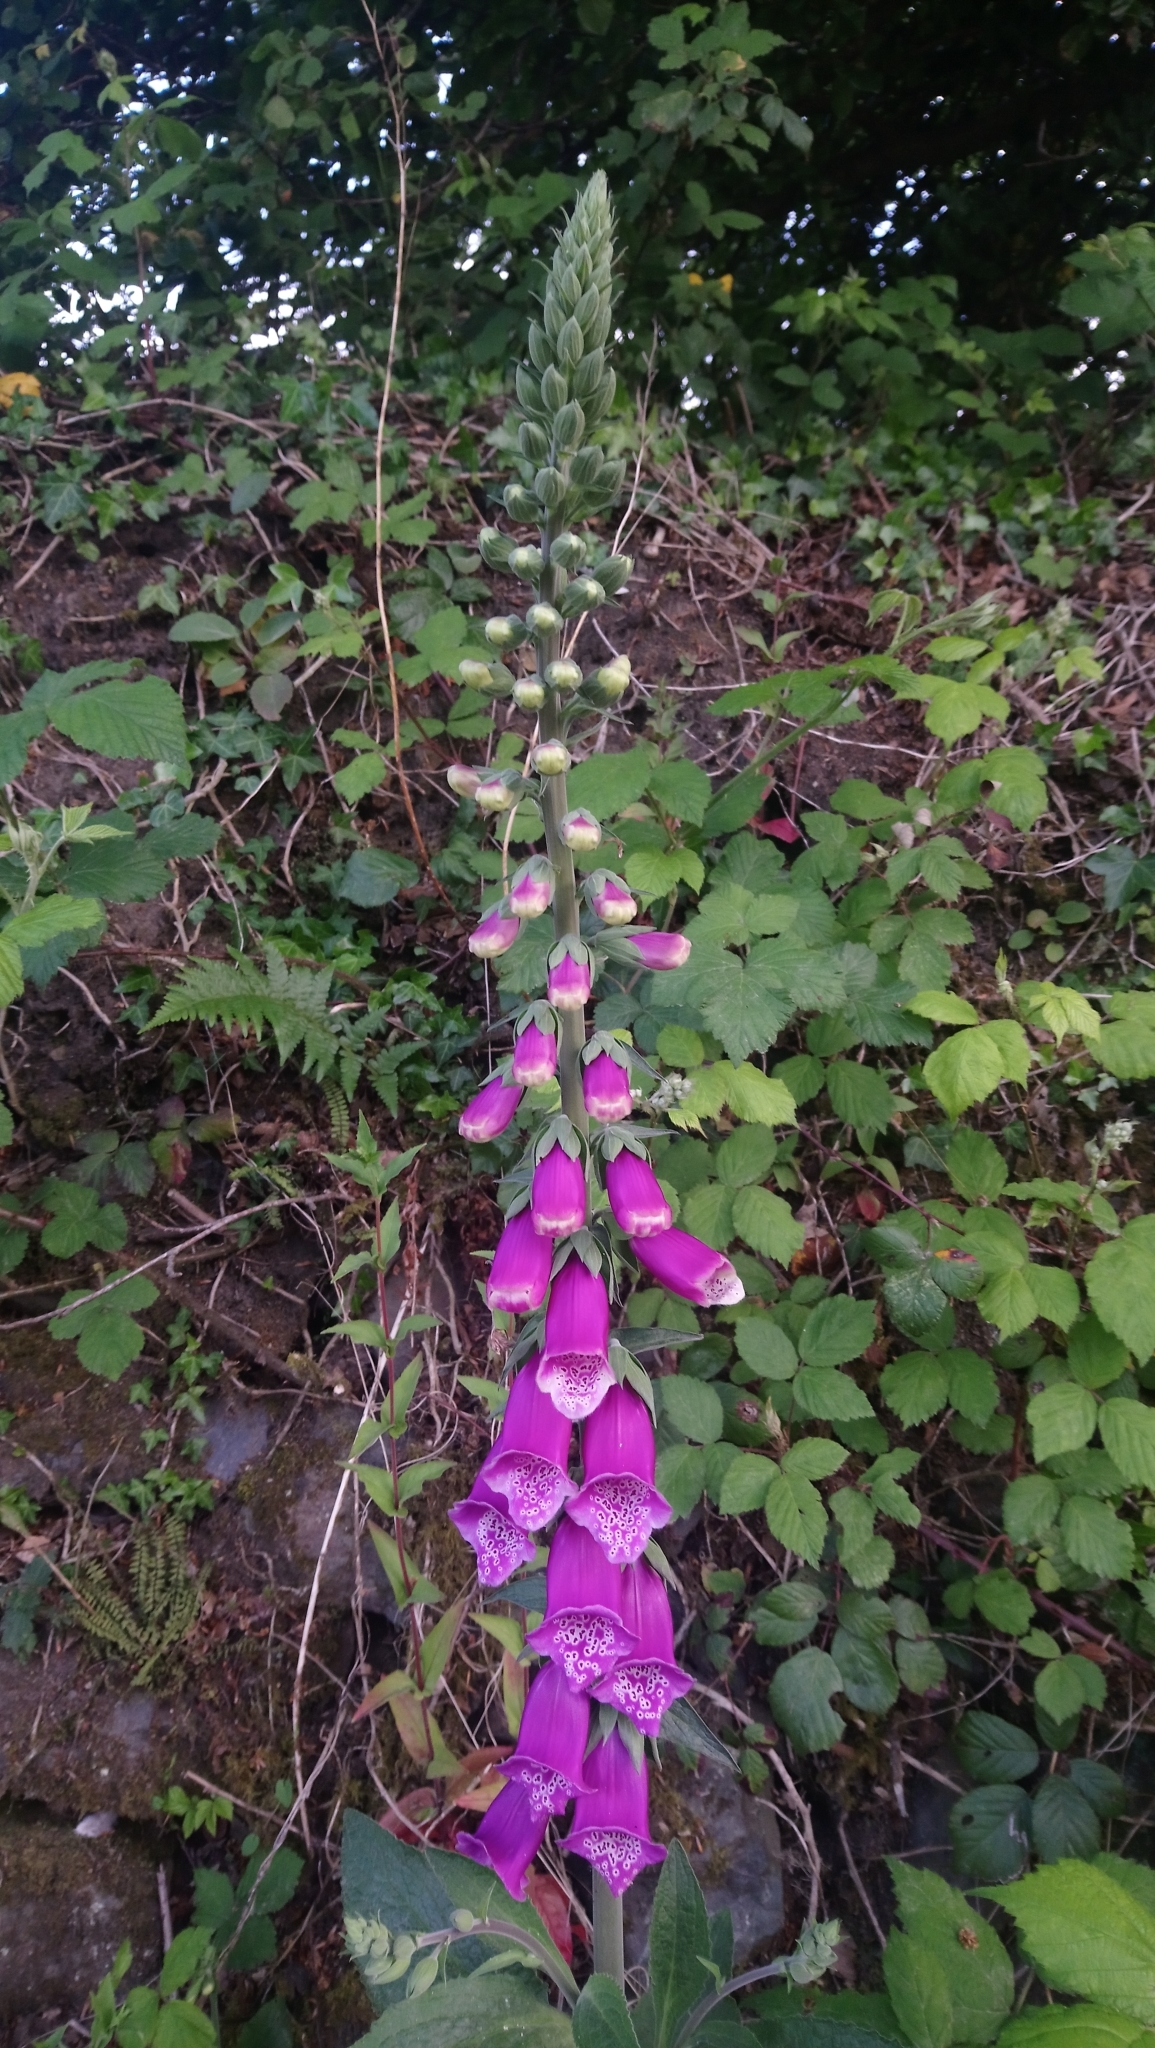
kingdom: Plantae
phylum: Tracheophyta
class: Magnoliopsida
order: Lamiales
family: Plantaginaceae
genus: Digitalis
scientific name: Digitalis purpurea
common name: Foxglove
